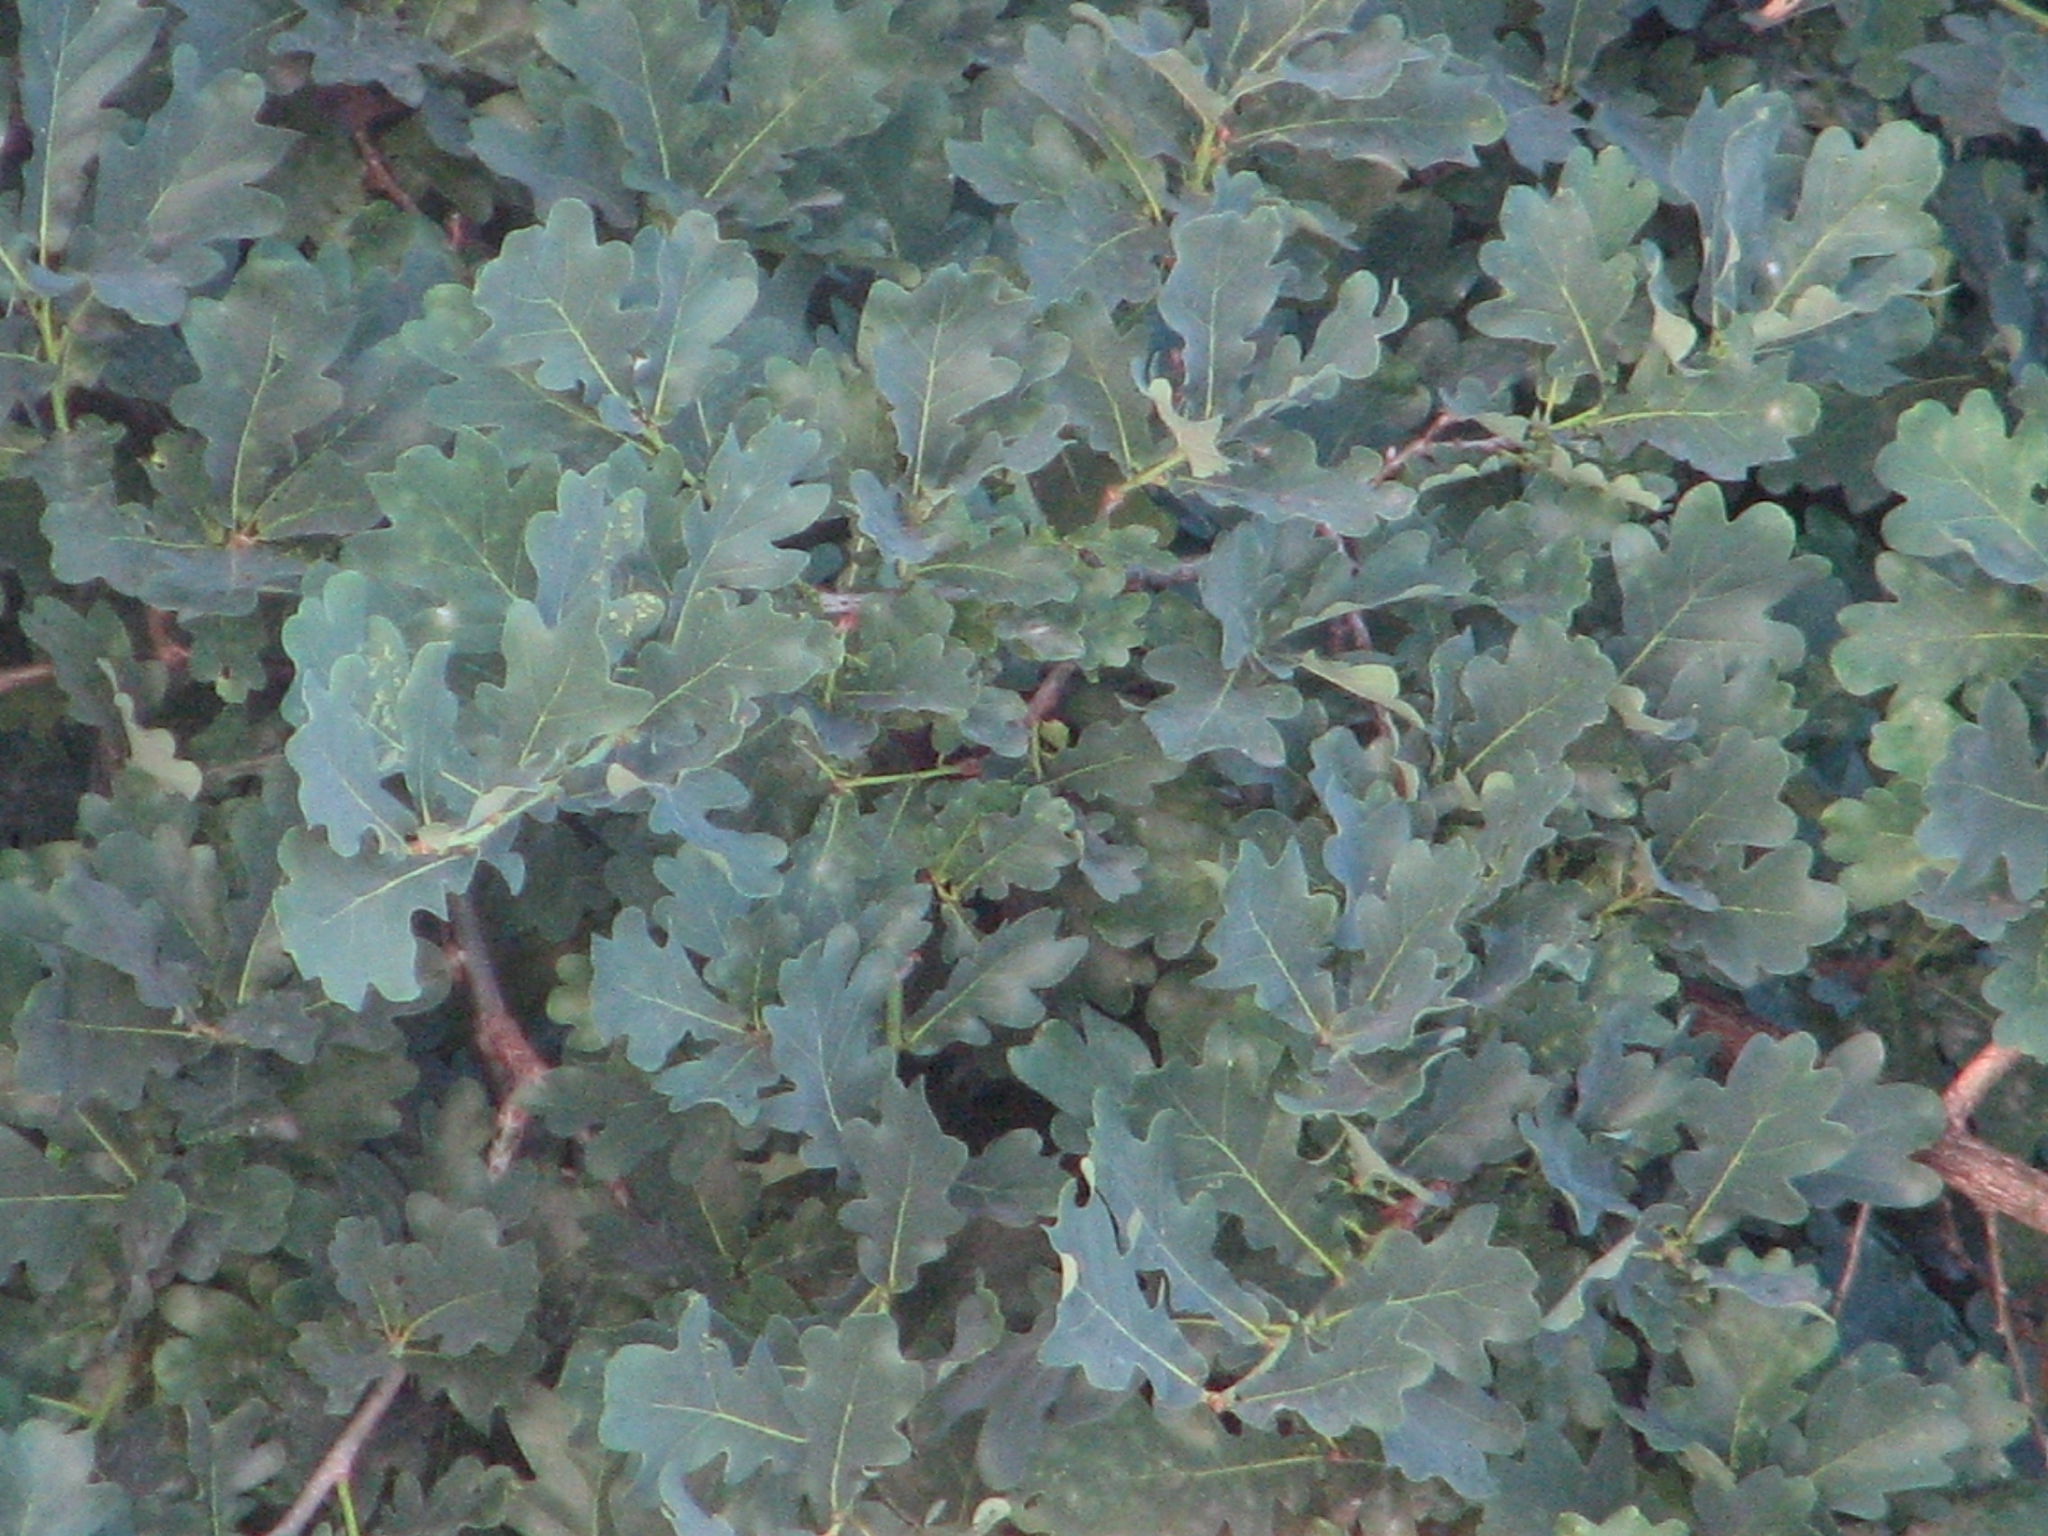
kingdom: Plantae
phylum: Tracheophyta
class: Magnoliopsida
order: Fagales
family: Fagaceae
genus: Quercus
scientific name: Quercus robur
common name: Pedunculate oak
